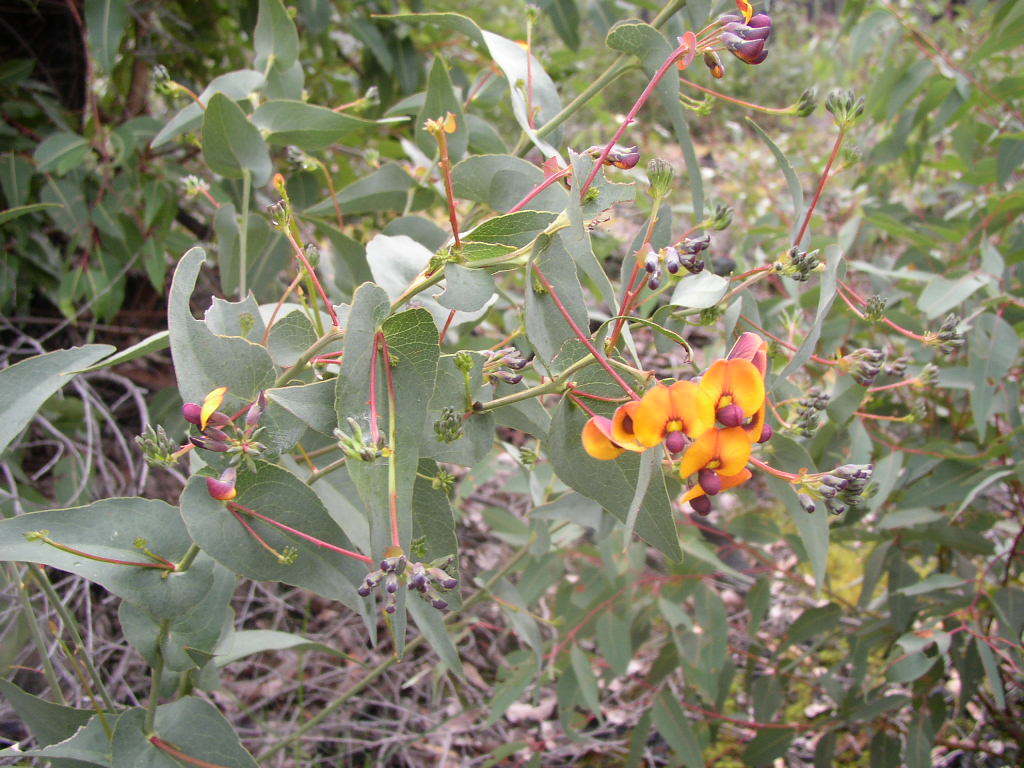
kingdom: Plantae
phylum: Tracheophyta
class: Magnoliopsida
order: Fabales
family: Fabaceae
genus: Daviesia
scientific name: Daviesia cordata
